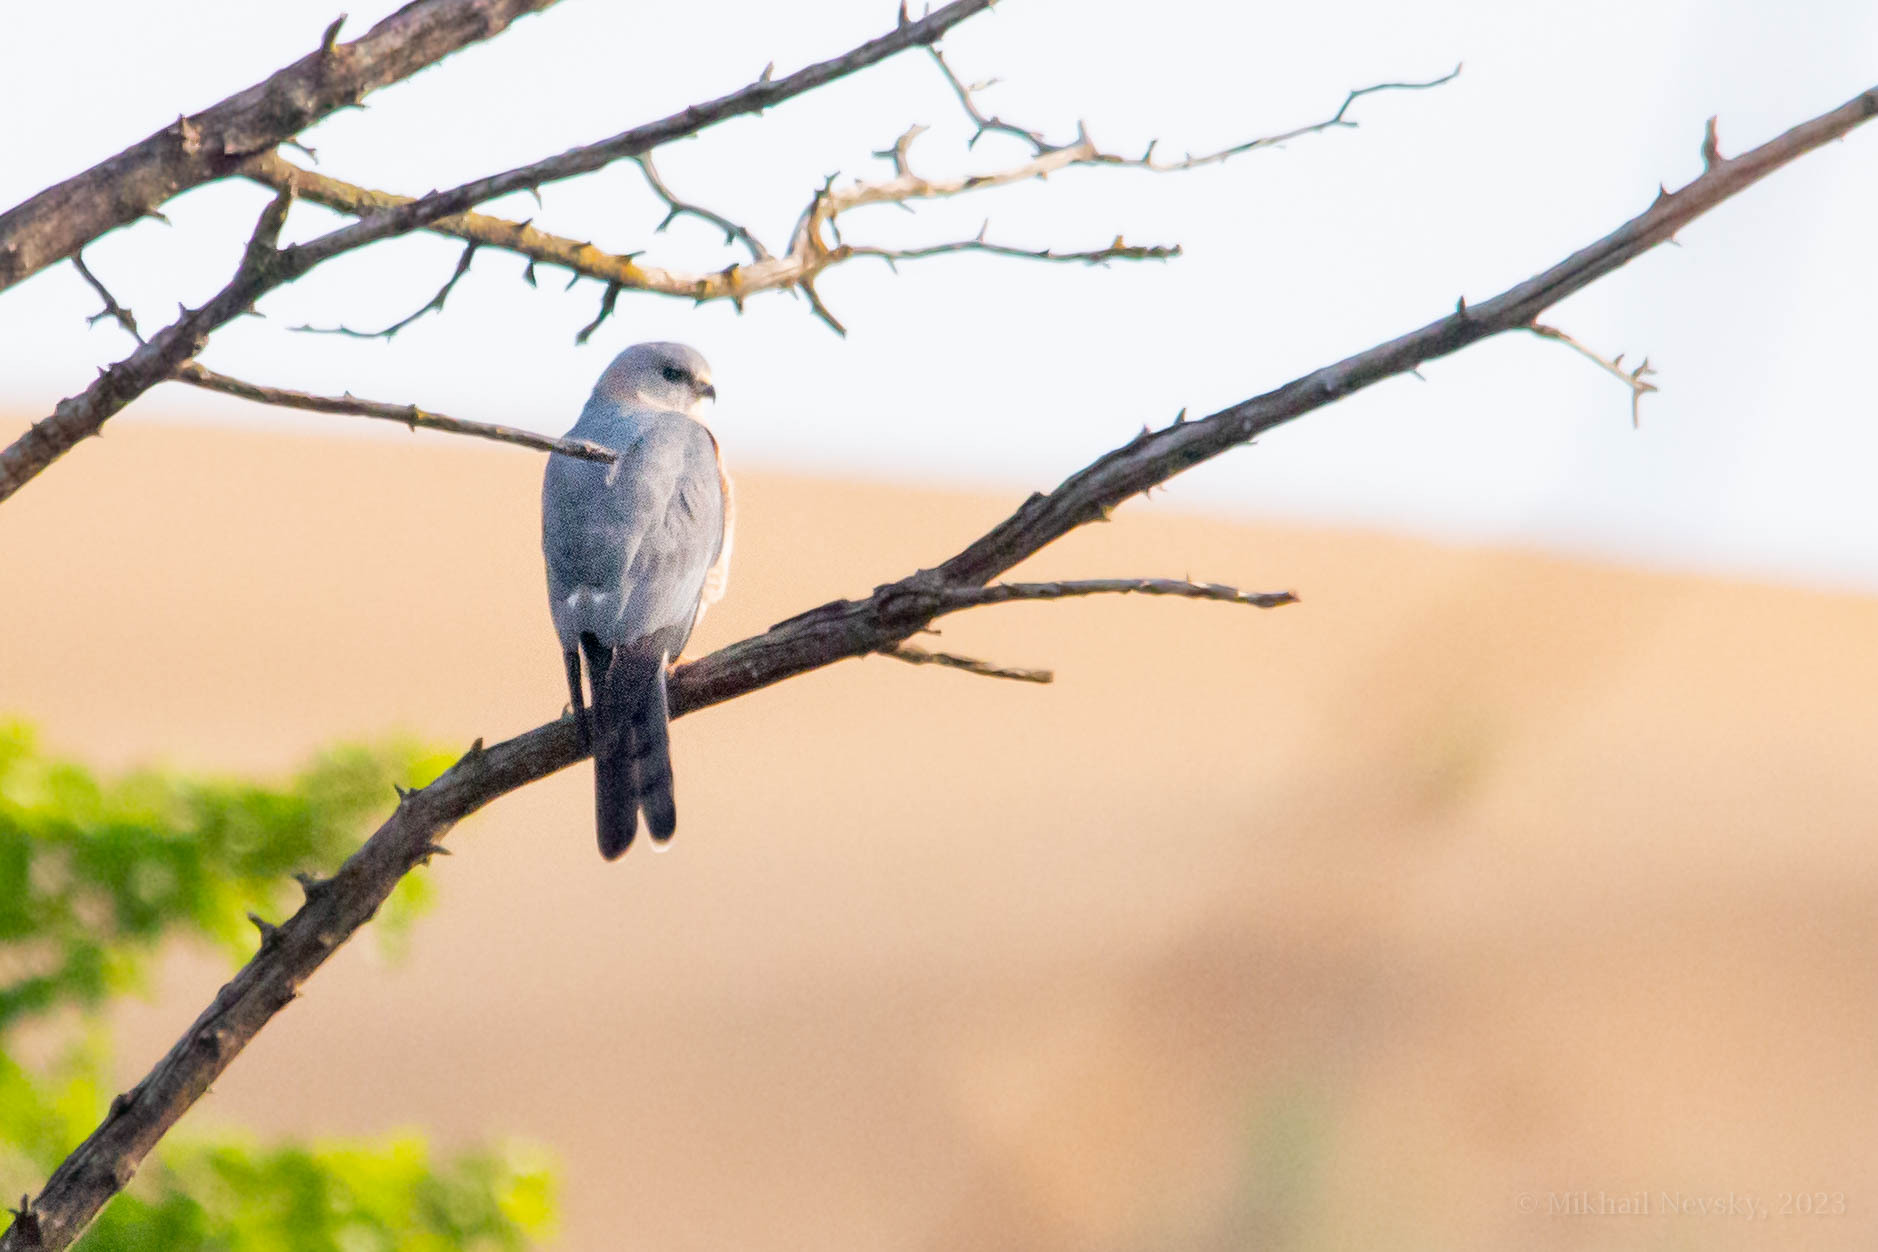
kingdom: Animalia
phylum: Chordata
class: Aves
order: Accipitriformes
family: Accipitridae
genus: Accipiter
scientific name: Accipiter brevipes
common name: Levant sparrowhawk
